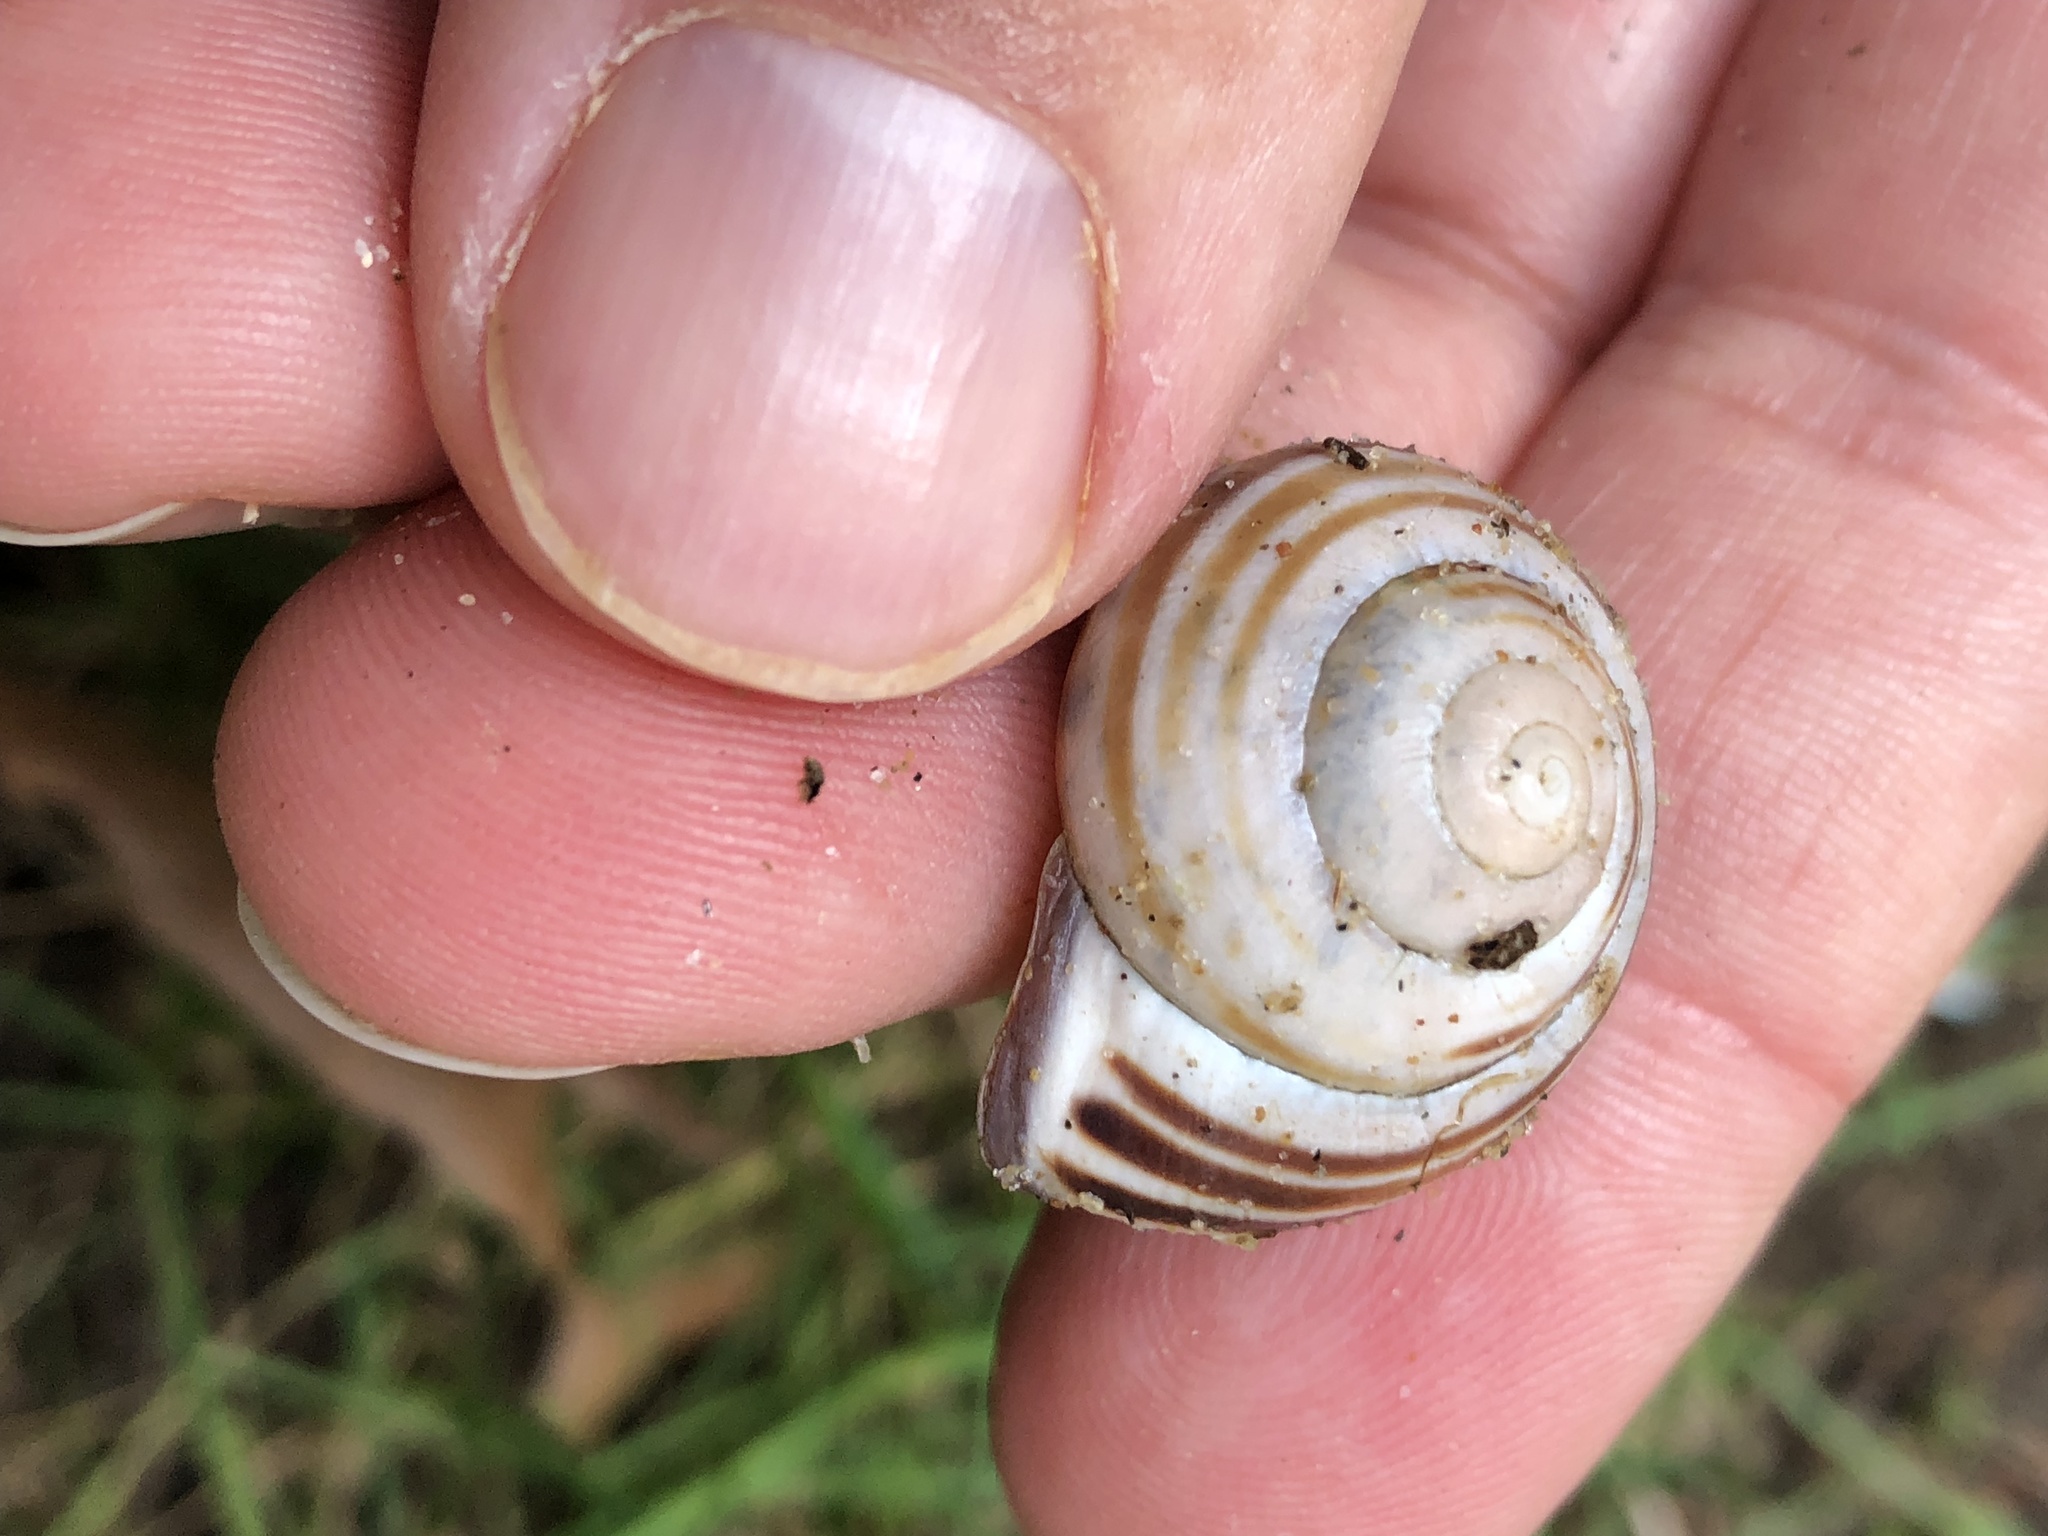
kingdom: Animalia
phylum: Mollusca
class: Gastropoda
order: Stylommatophora
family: Helicidae
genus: Cepaea
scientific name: Cepaea nemoralis
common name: Grovesnail
